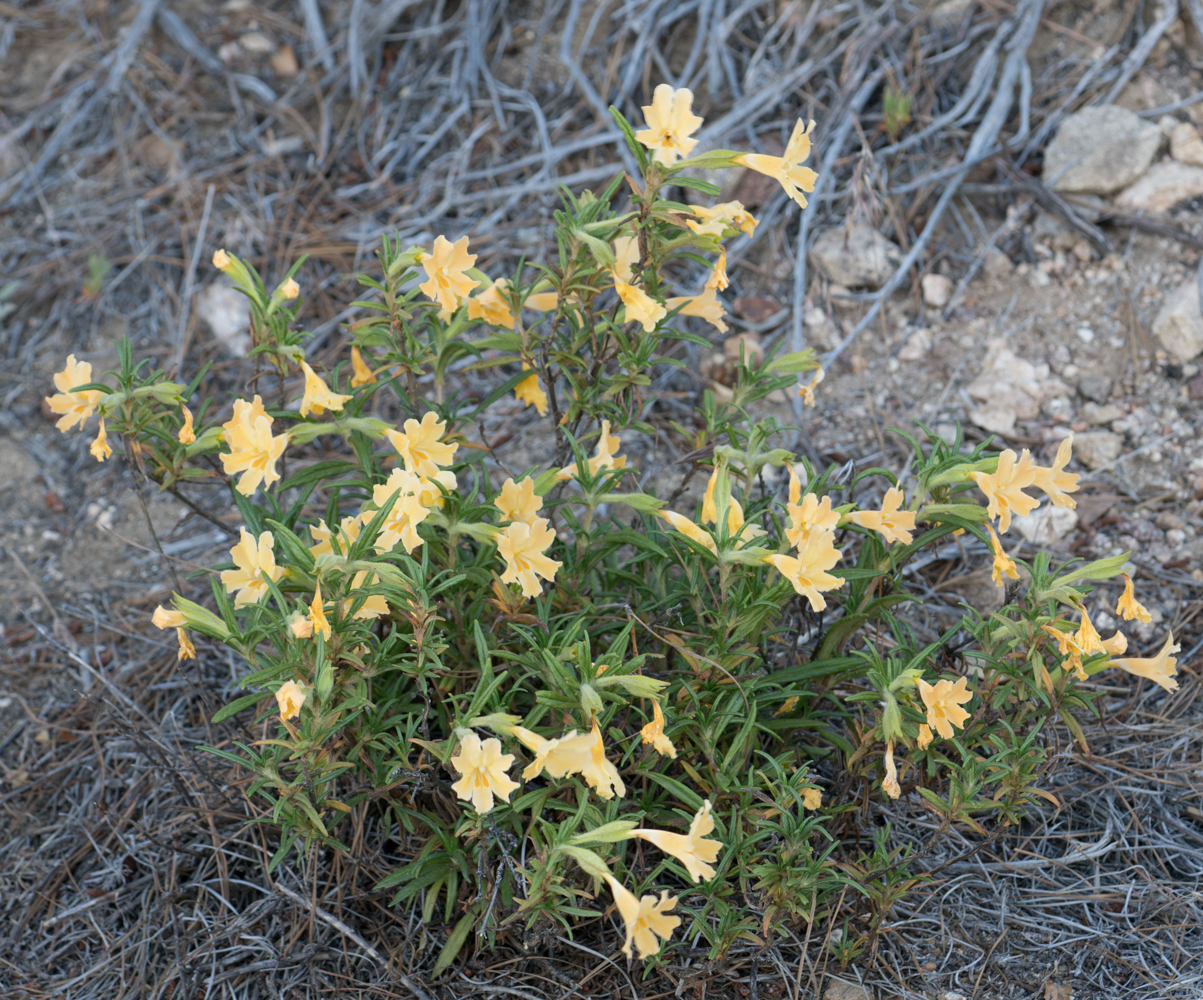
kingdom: Plantae
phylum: Tracheophyta
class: Magnoliopsida
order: Lamiales
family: Phrymaceae
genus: Diplacus
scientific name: Diplacus longiflorus
